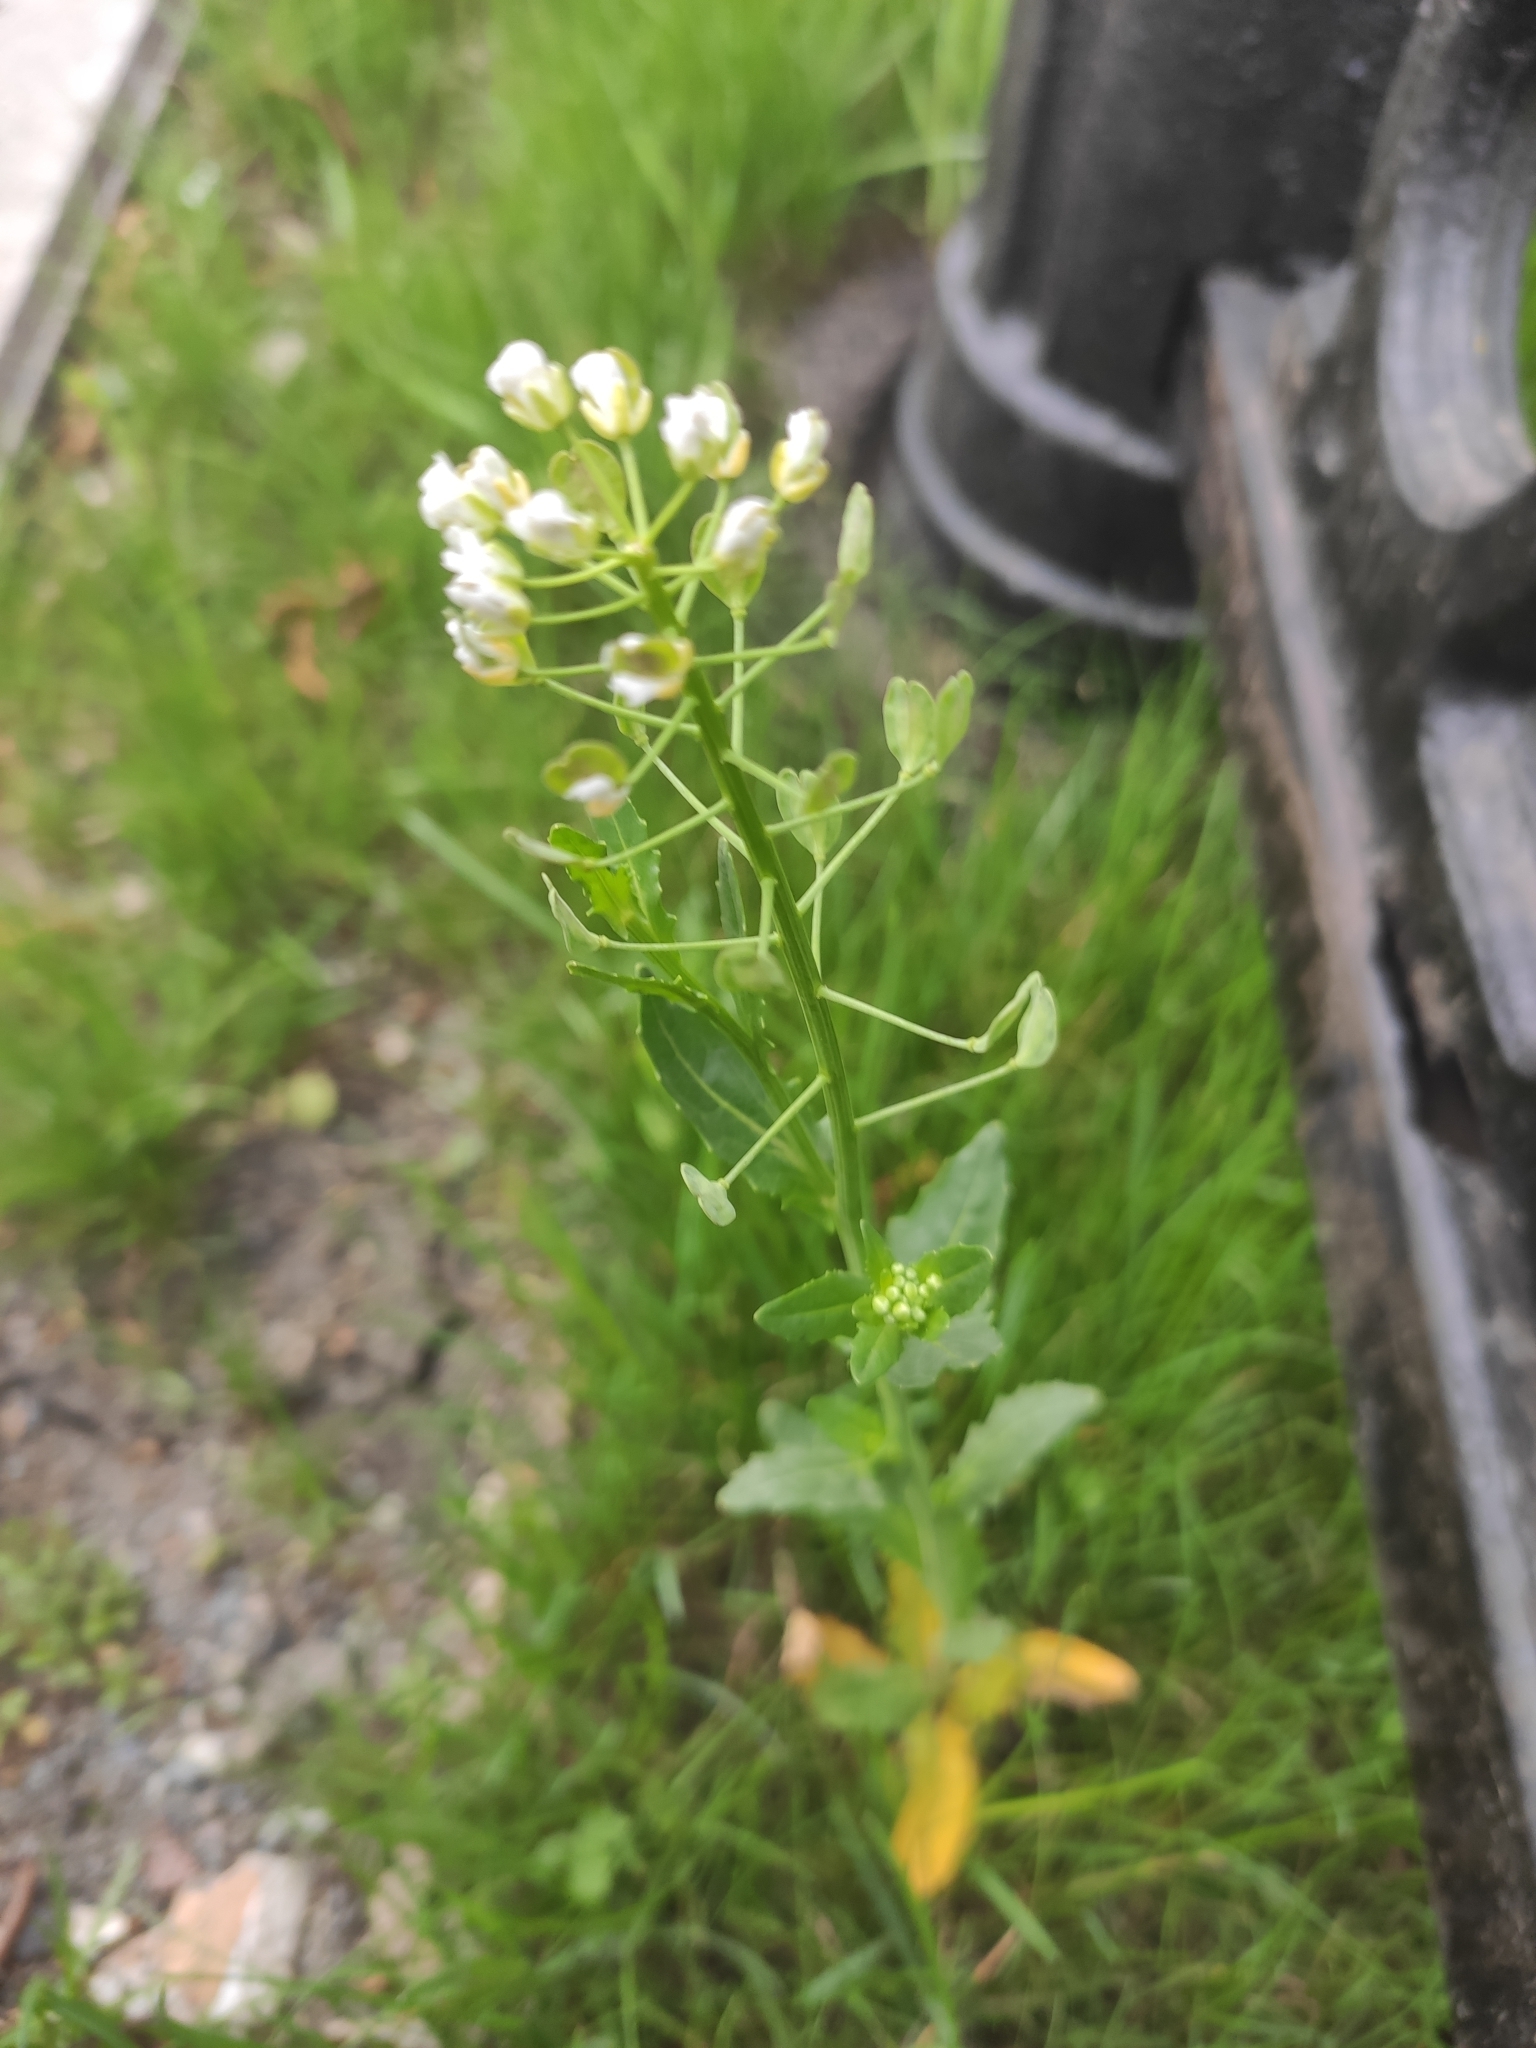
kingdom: Plantae
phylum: Tracheophyta
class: Magnoliopsida
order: Brassicales
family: Brassicaceae
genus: Thlaspi
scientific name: Thlaspi arvense
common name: Field pennycress
